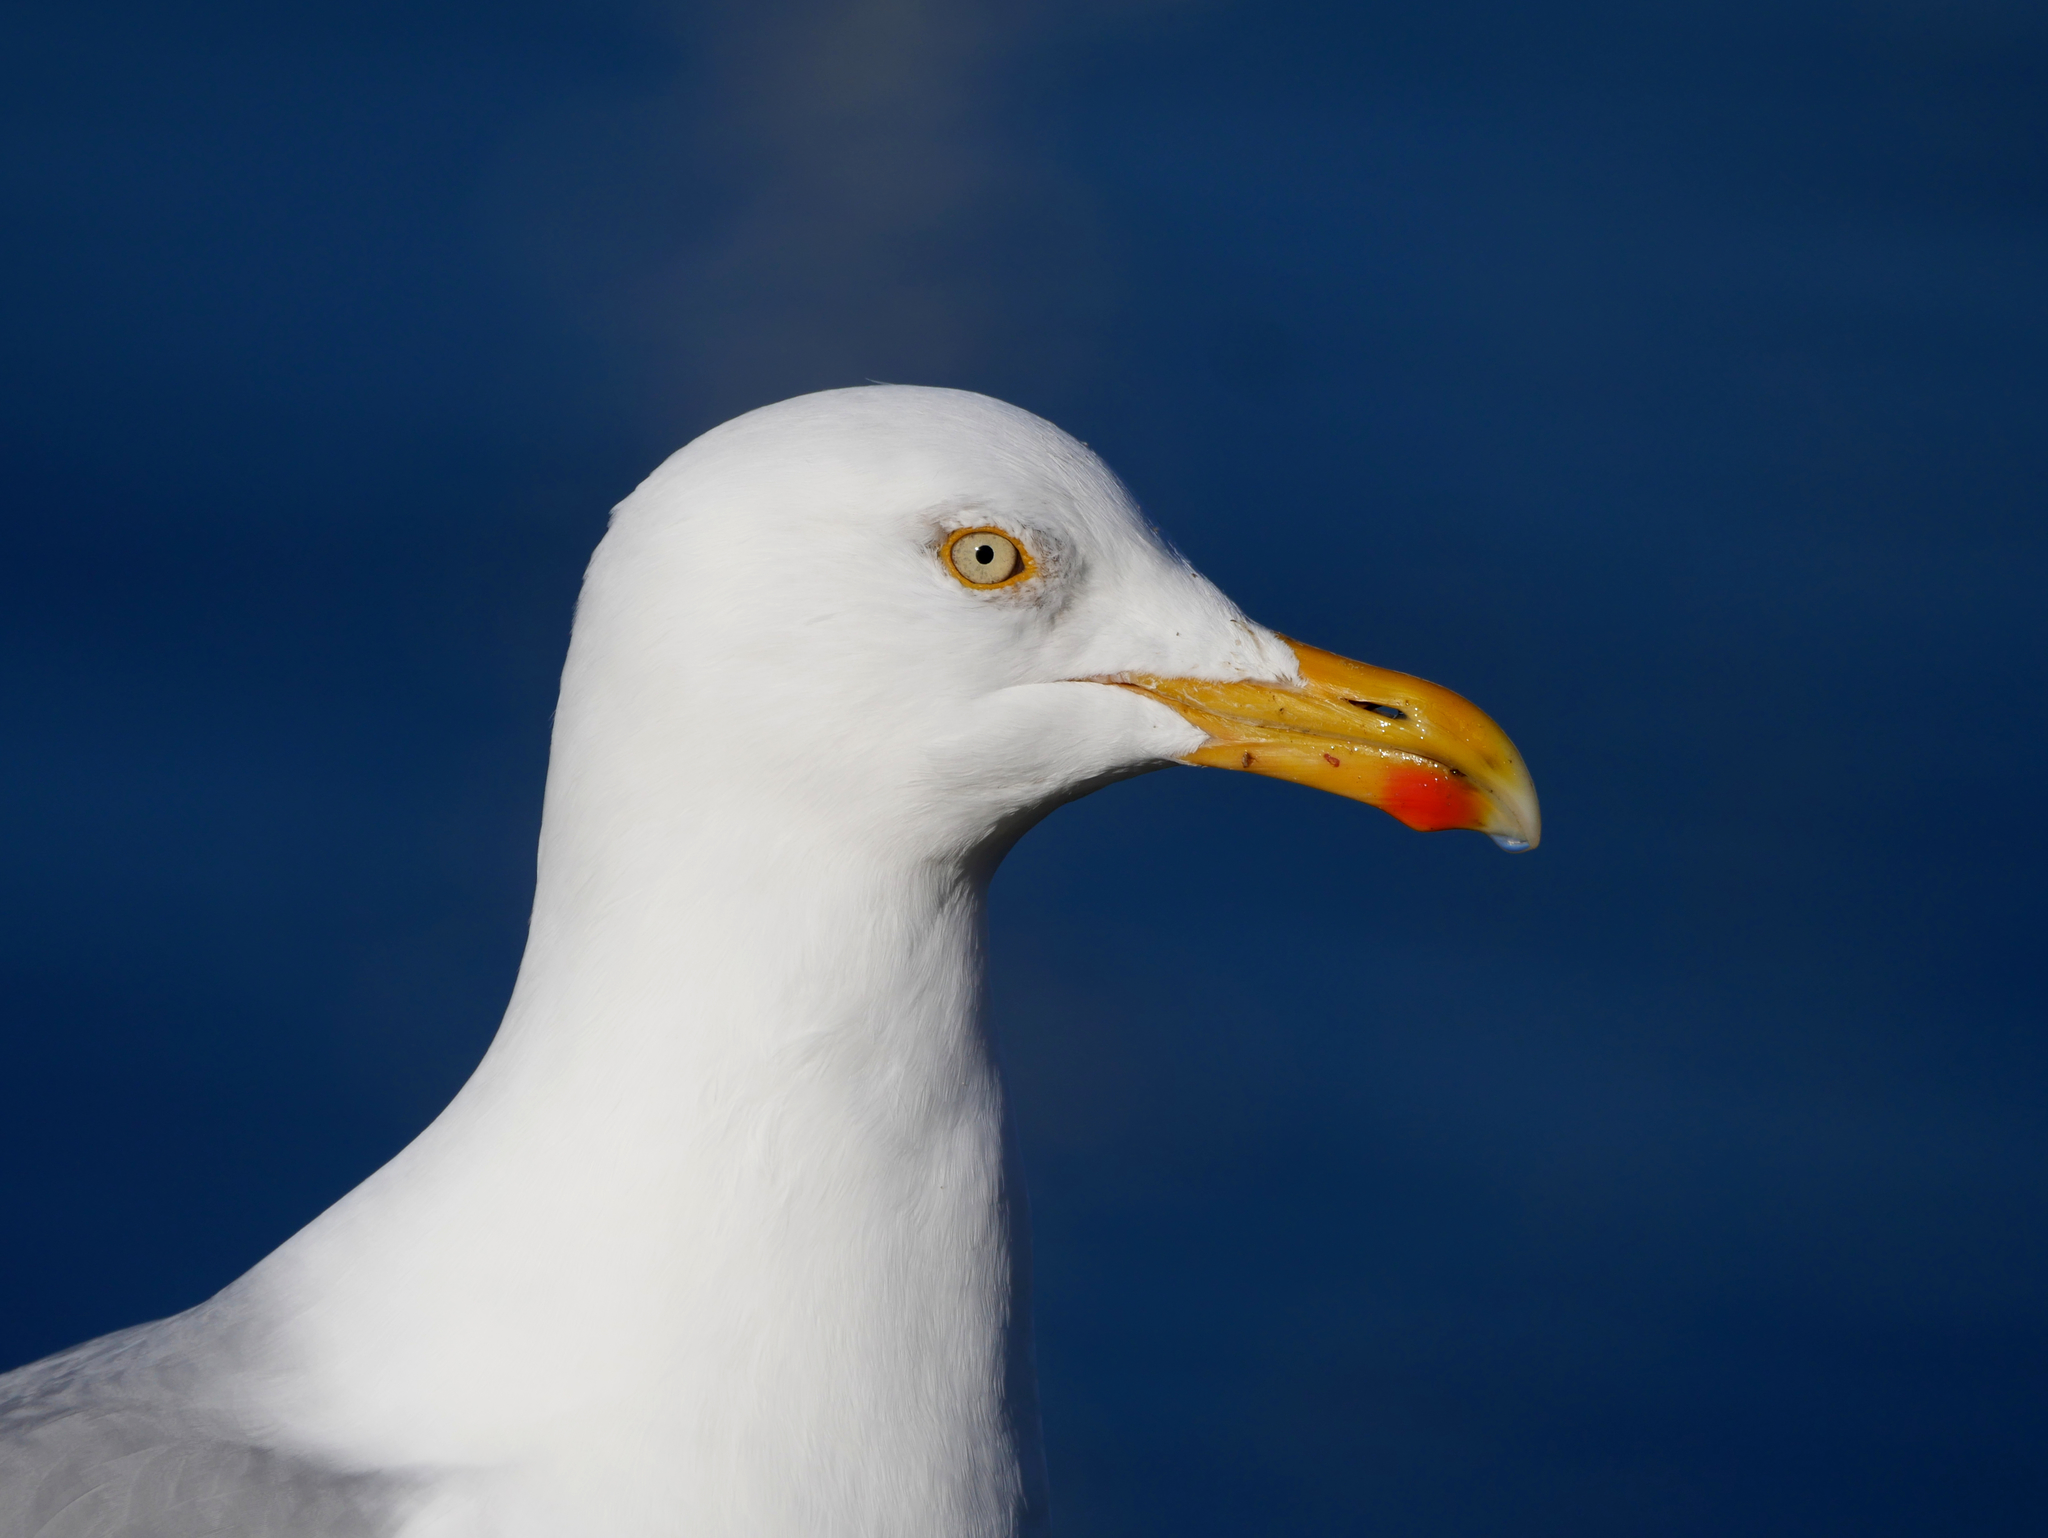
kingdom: Animalia
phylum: Chordata
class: Aves
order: Charadriiformes
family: Laridae
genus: Larus
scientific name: Larus argentatus
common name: Herring gull
